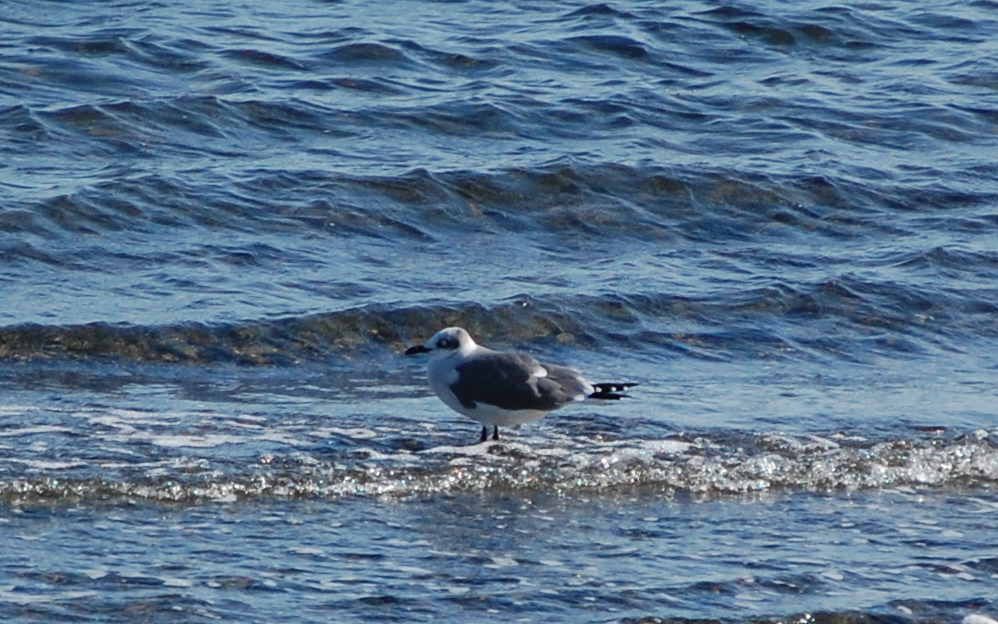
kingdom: Animalia
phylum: Chordata
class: Aves
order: Charadriiformes
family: Laridae
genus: Leucophaeus
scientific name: Leucophaeus atricilla
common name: Laughing gull
